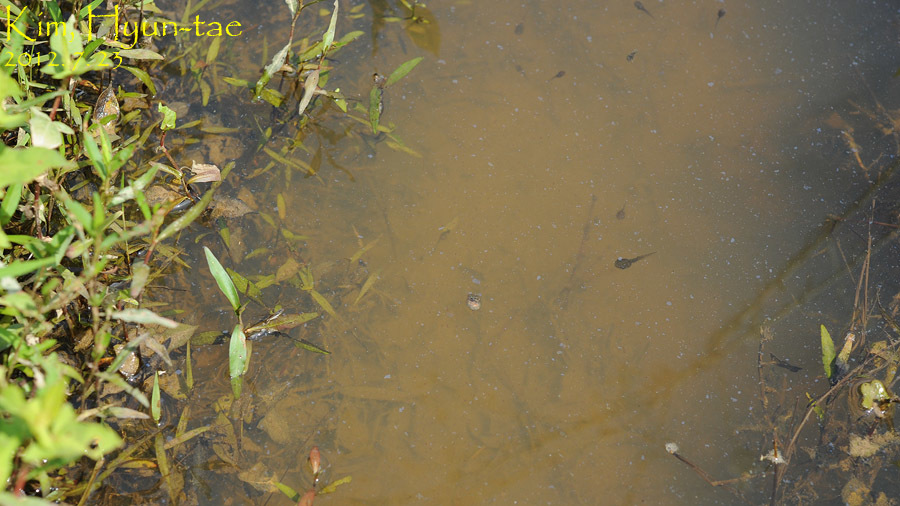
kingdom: Animalia
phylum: Chordata
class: Amphibia
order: Anura
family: Hylidae
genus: Dryophytes
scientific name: Dryophytes japonicus
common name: Japanese treefrog
